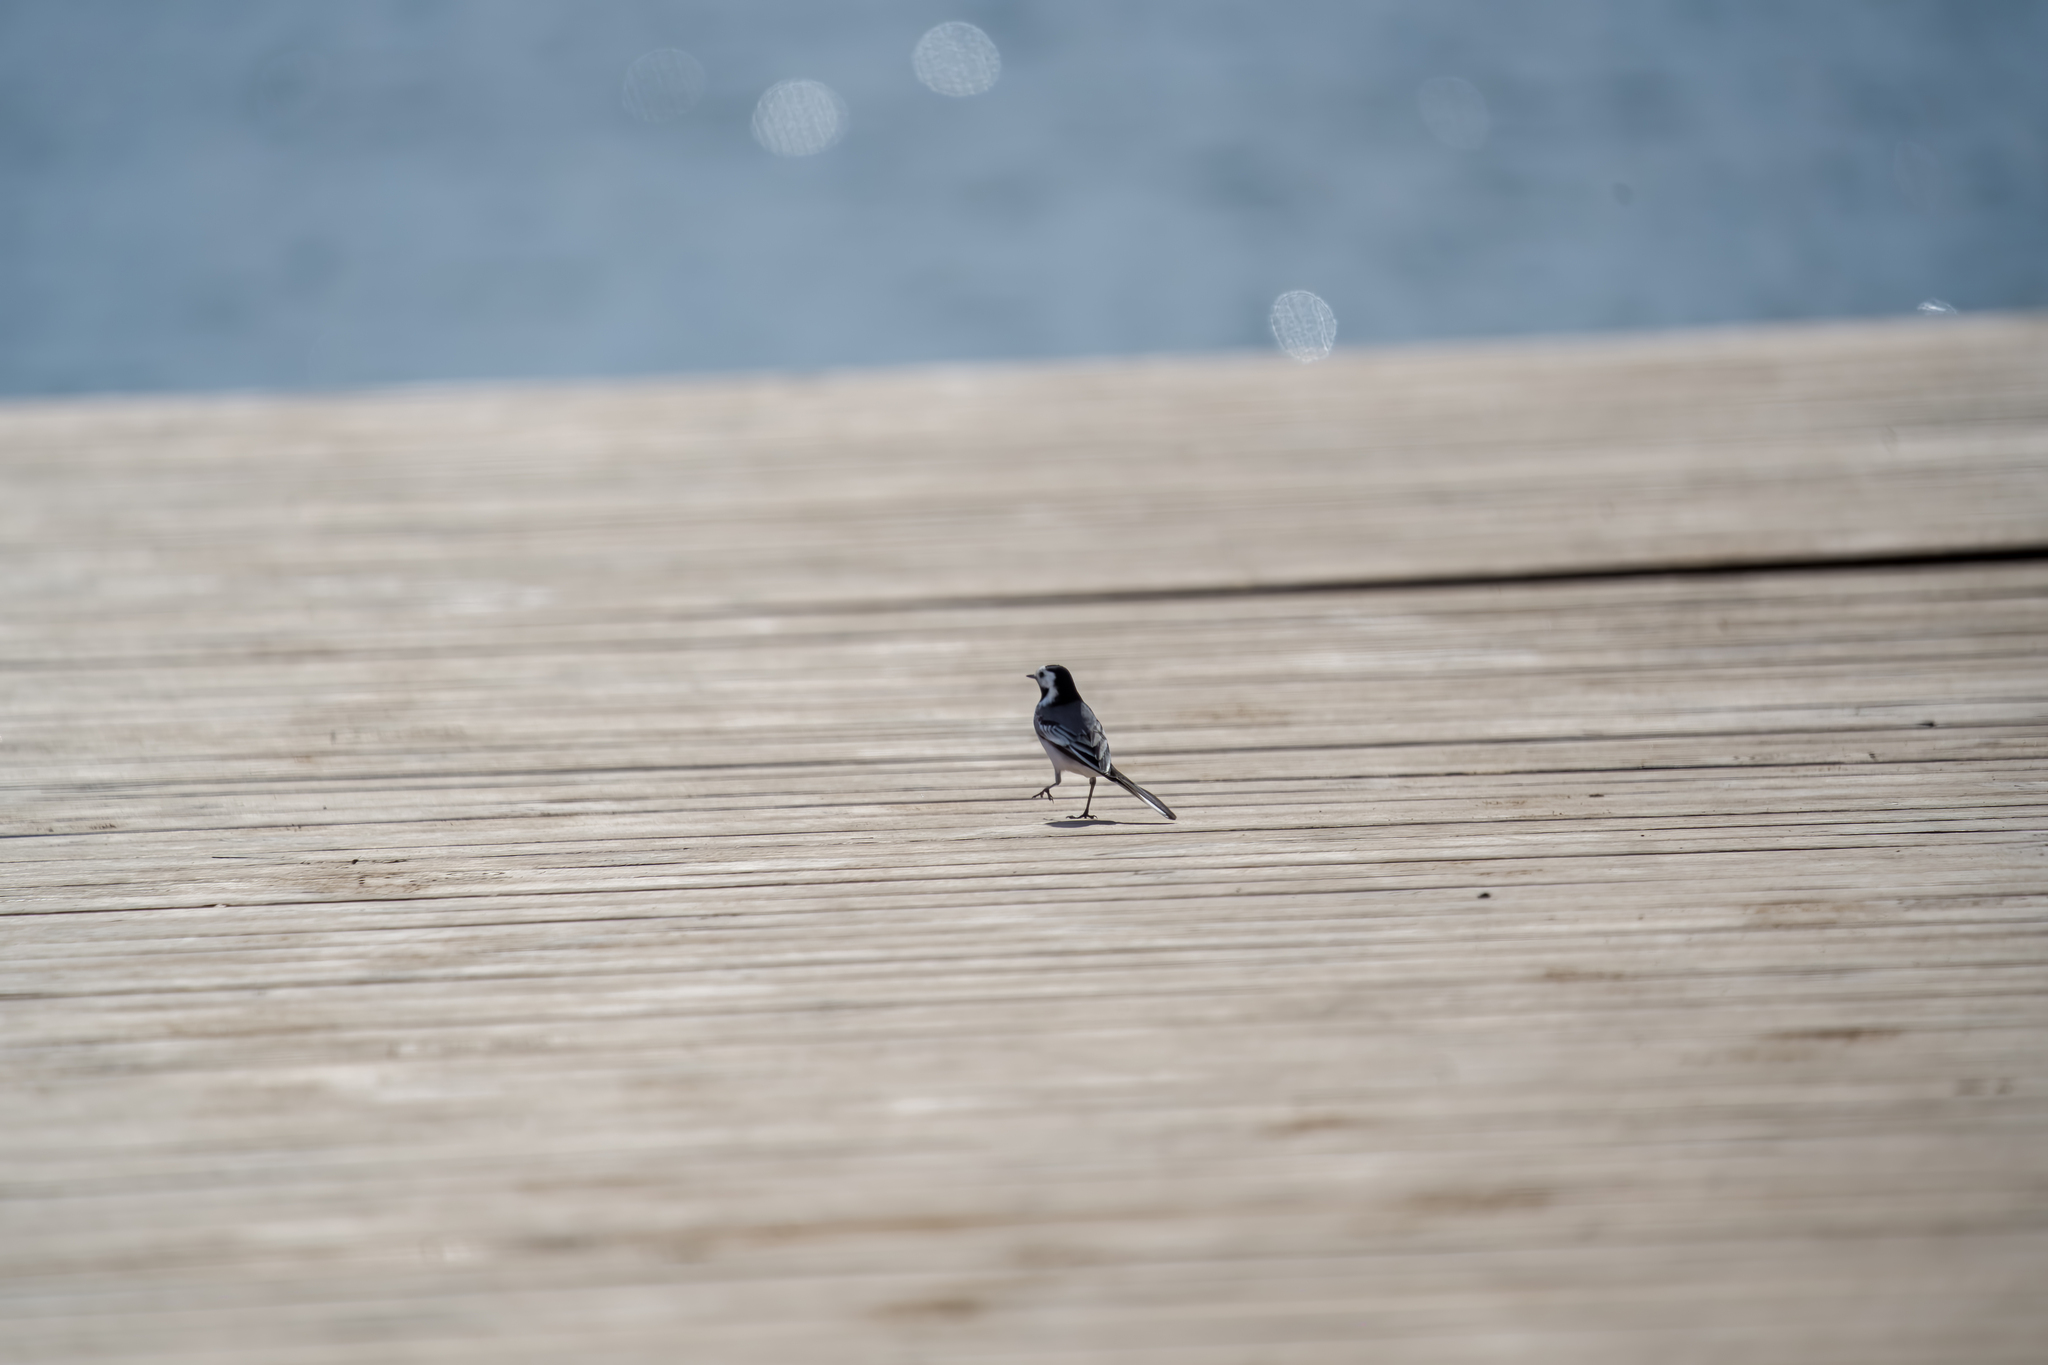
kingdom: Animalia
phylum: Chordata
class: Aves
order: Passeriformes
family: Motacillidae
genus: Motacilla
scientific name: Motacilla alba
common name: White wagtail
